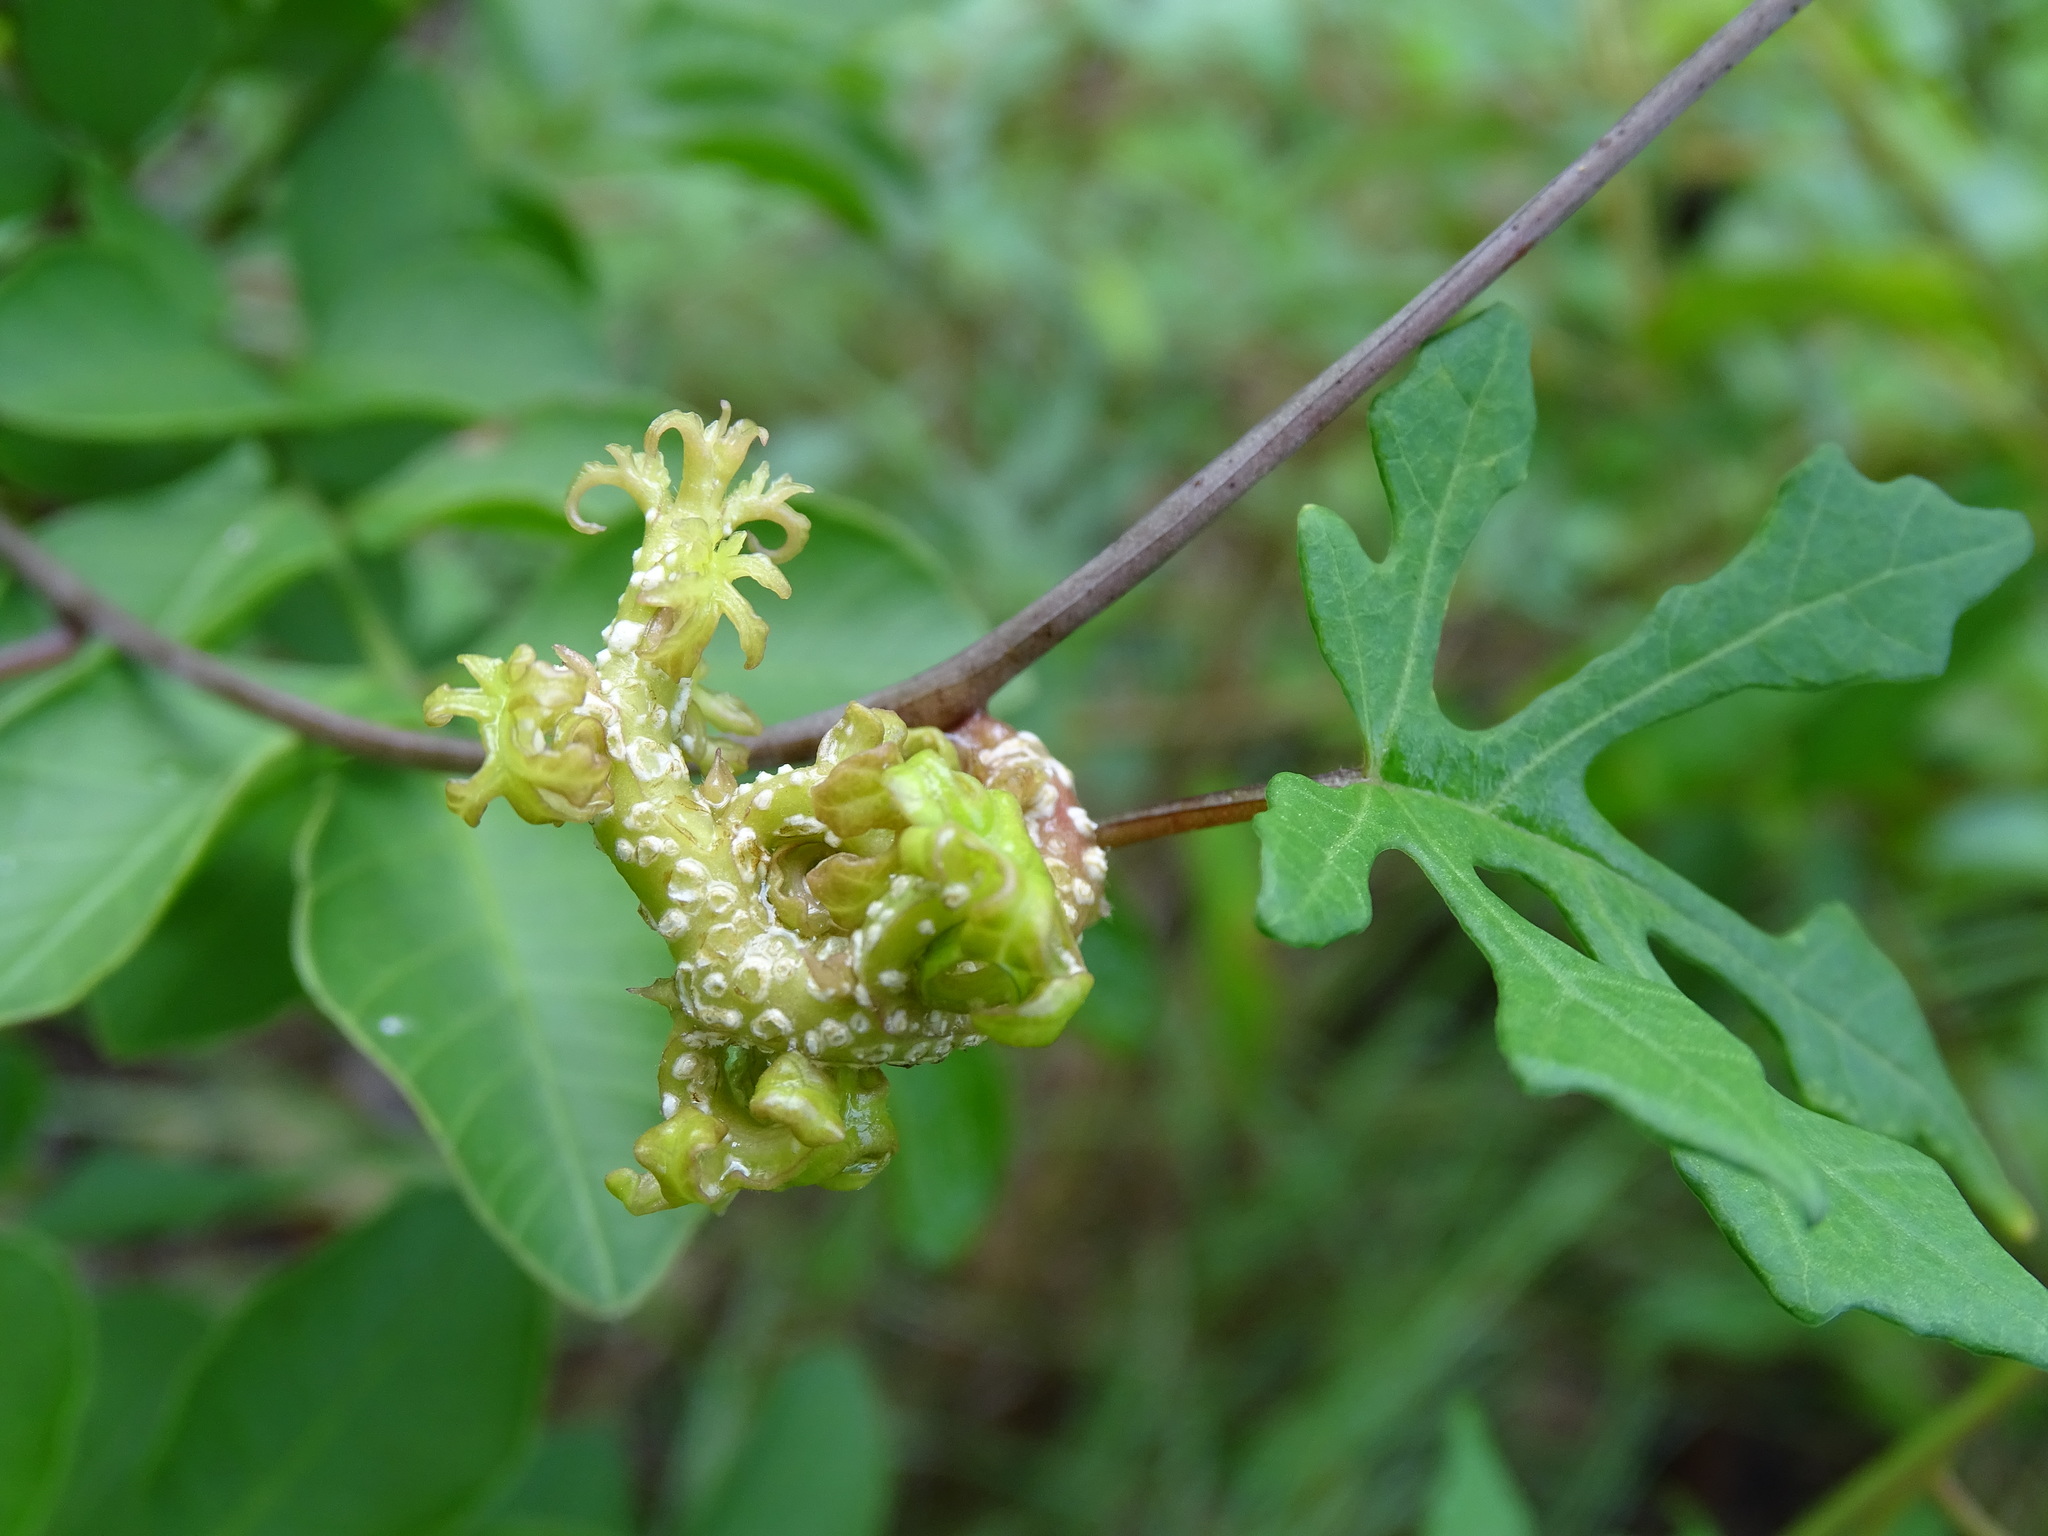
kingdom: Plantae
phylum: Tracheophyta
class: Magnoliopsida
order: Solanales
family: Convolvulaceae
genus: Operculina
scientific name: Operculina pinnatifida
